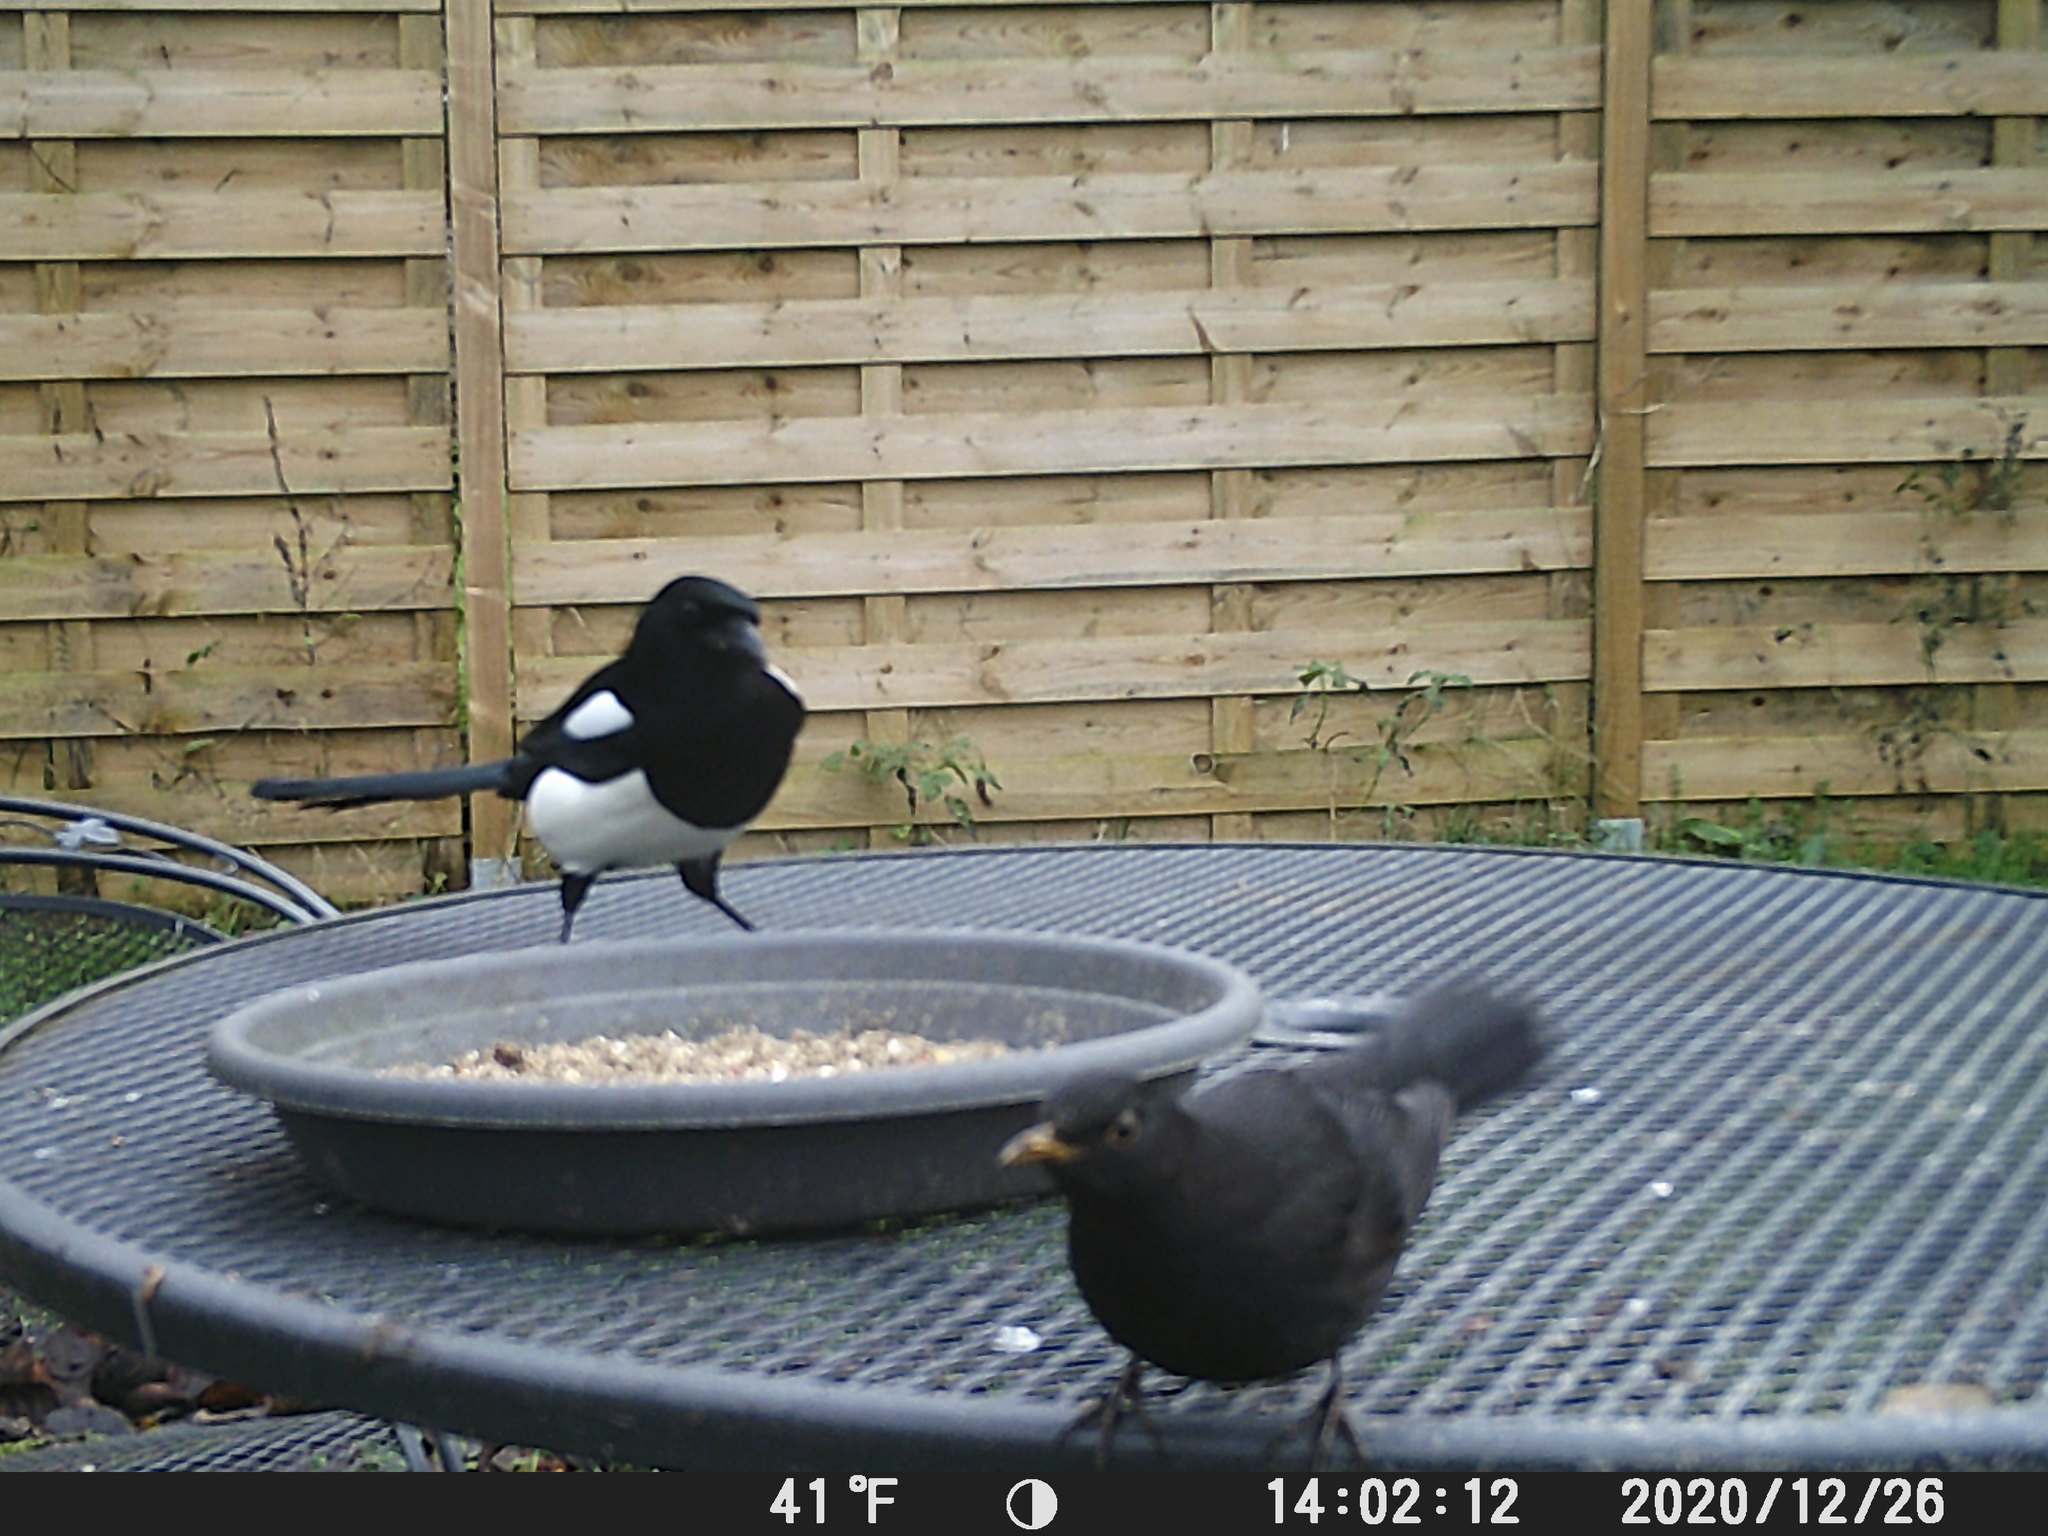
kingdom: Animalia
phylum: Chordata
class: Aves
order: Passeriformes
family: Turdidae
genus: Turdus
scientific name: Turdus merula
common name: Common blackbird
